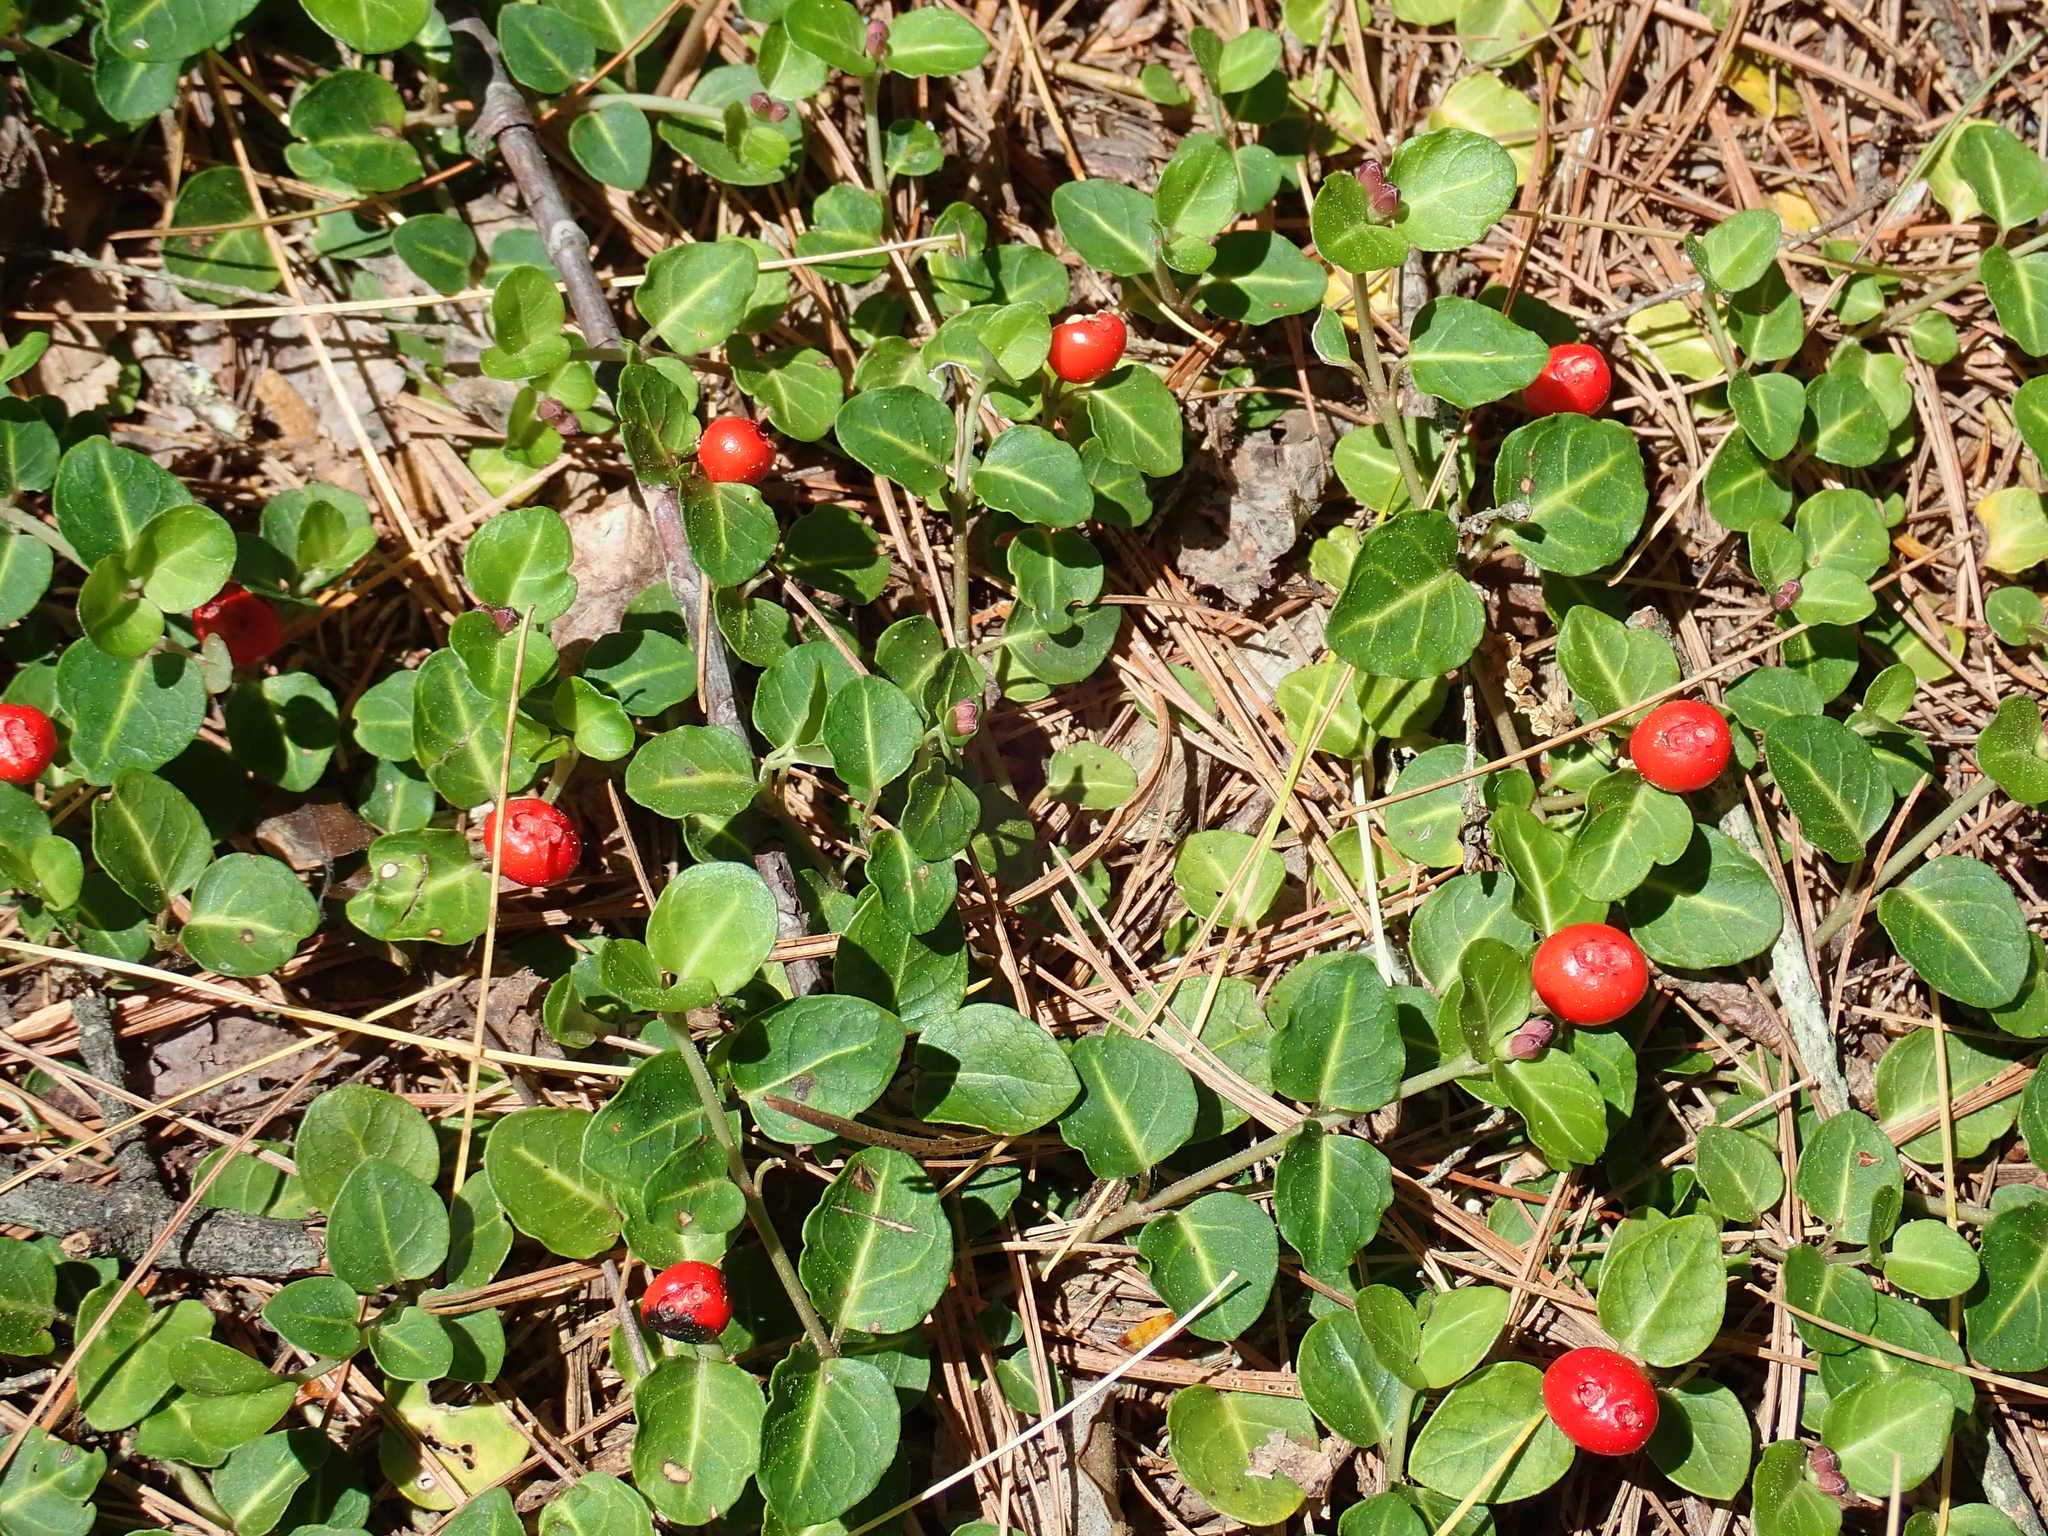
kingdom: Plantae
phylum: Tracheophyta
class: Magnoliopsida
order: Gentianales
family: Rubiaceae
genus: Mitchella
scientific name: Mitchella repens
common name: Partridge-berry
